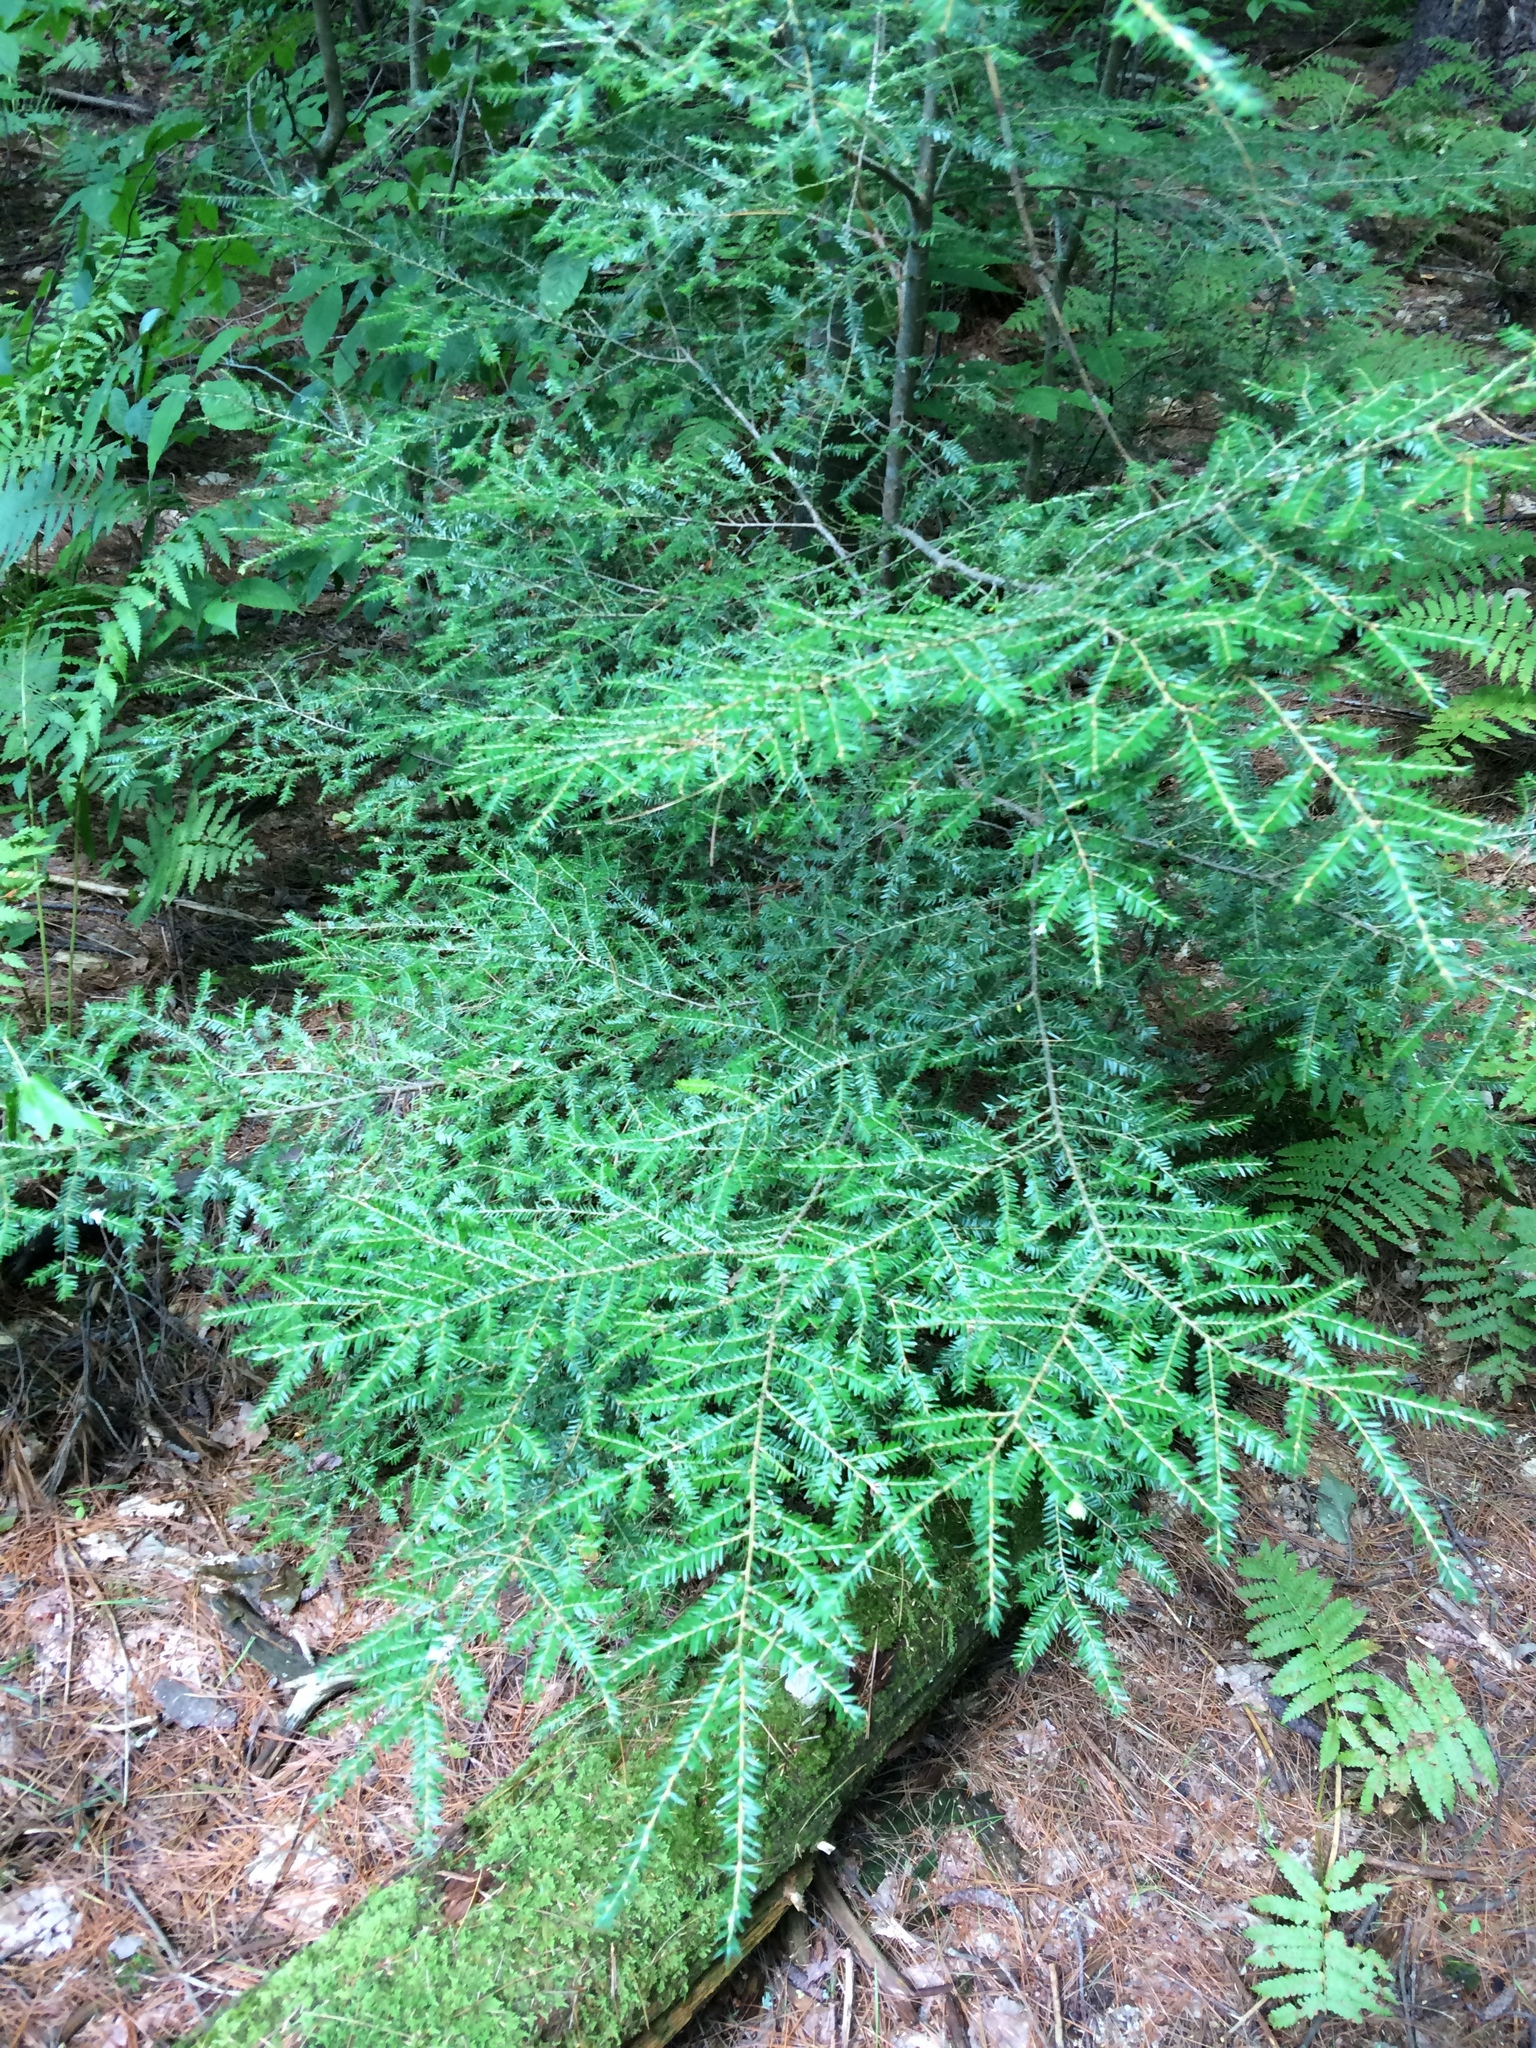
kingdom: Plantae
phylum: Tracheophyta
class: Pinopsida
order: Pinales
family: Pinaceae
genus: Tsuga
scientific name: Tsuga canadensis
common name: Eastern hemlock
